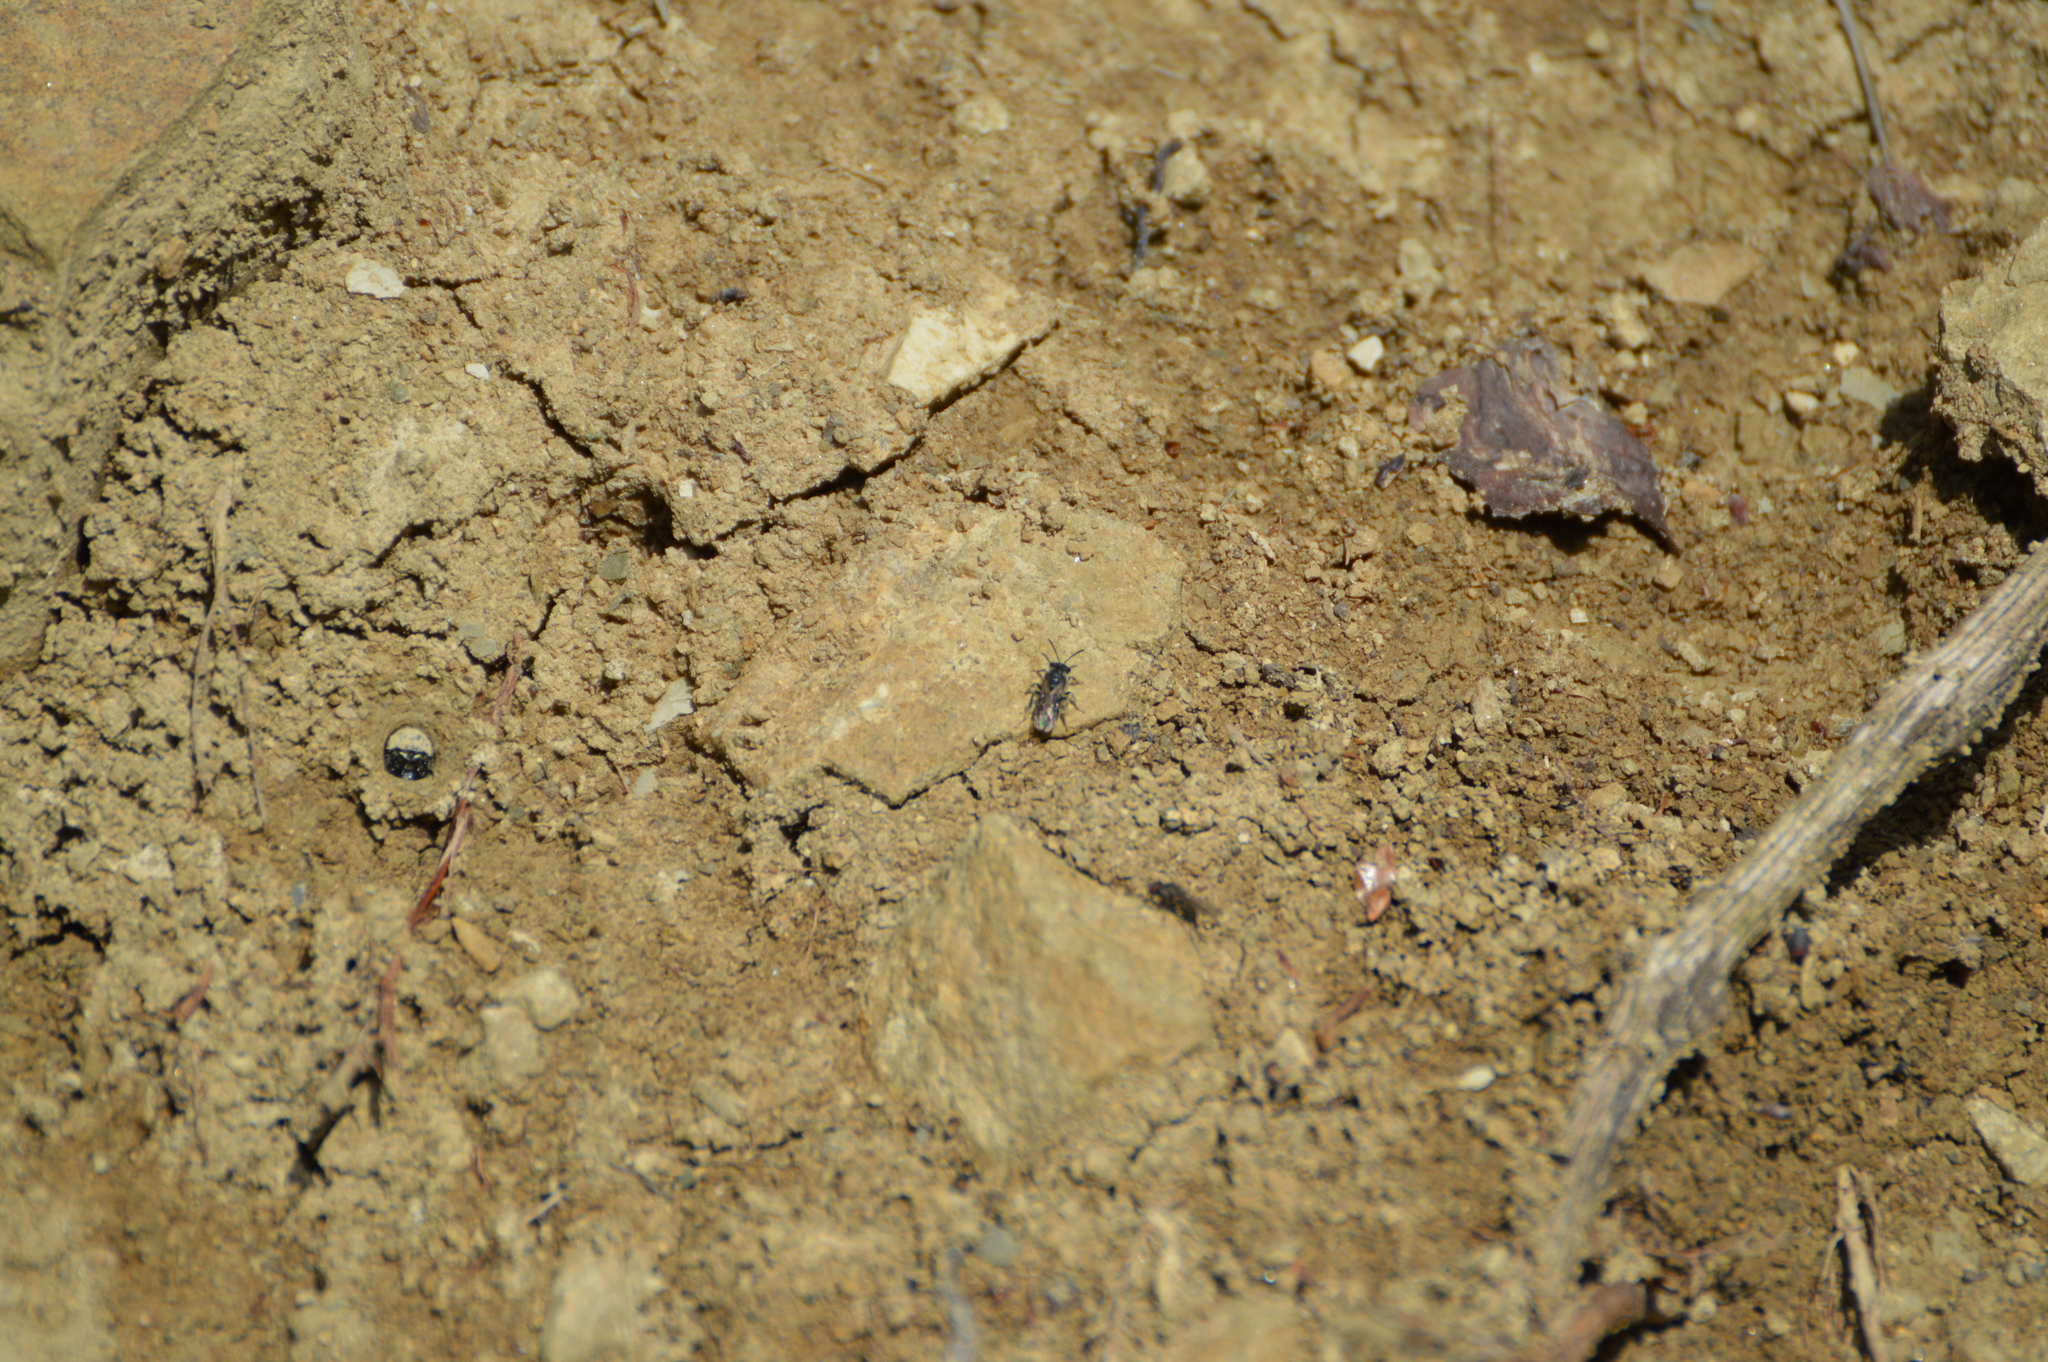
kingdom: Animalia
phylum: Arthropoda
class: Insecta
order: Hymenoptera
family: Andrenidae
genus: Andrena
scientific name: Andrena
